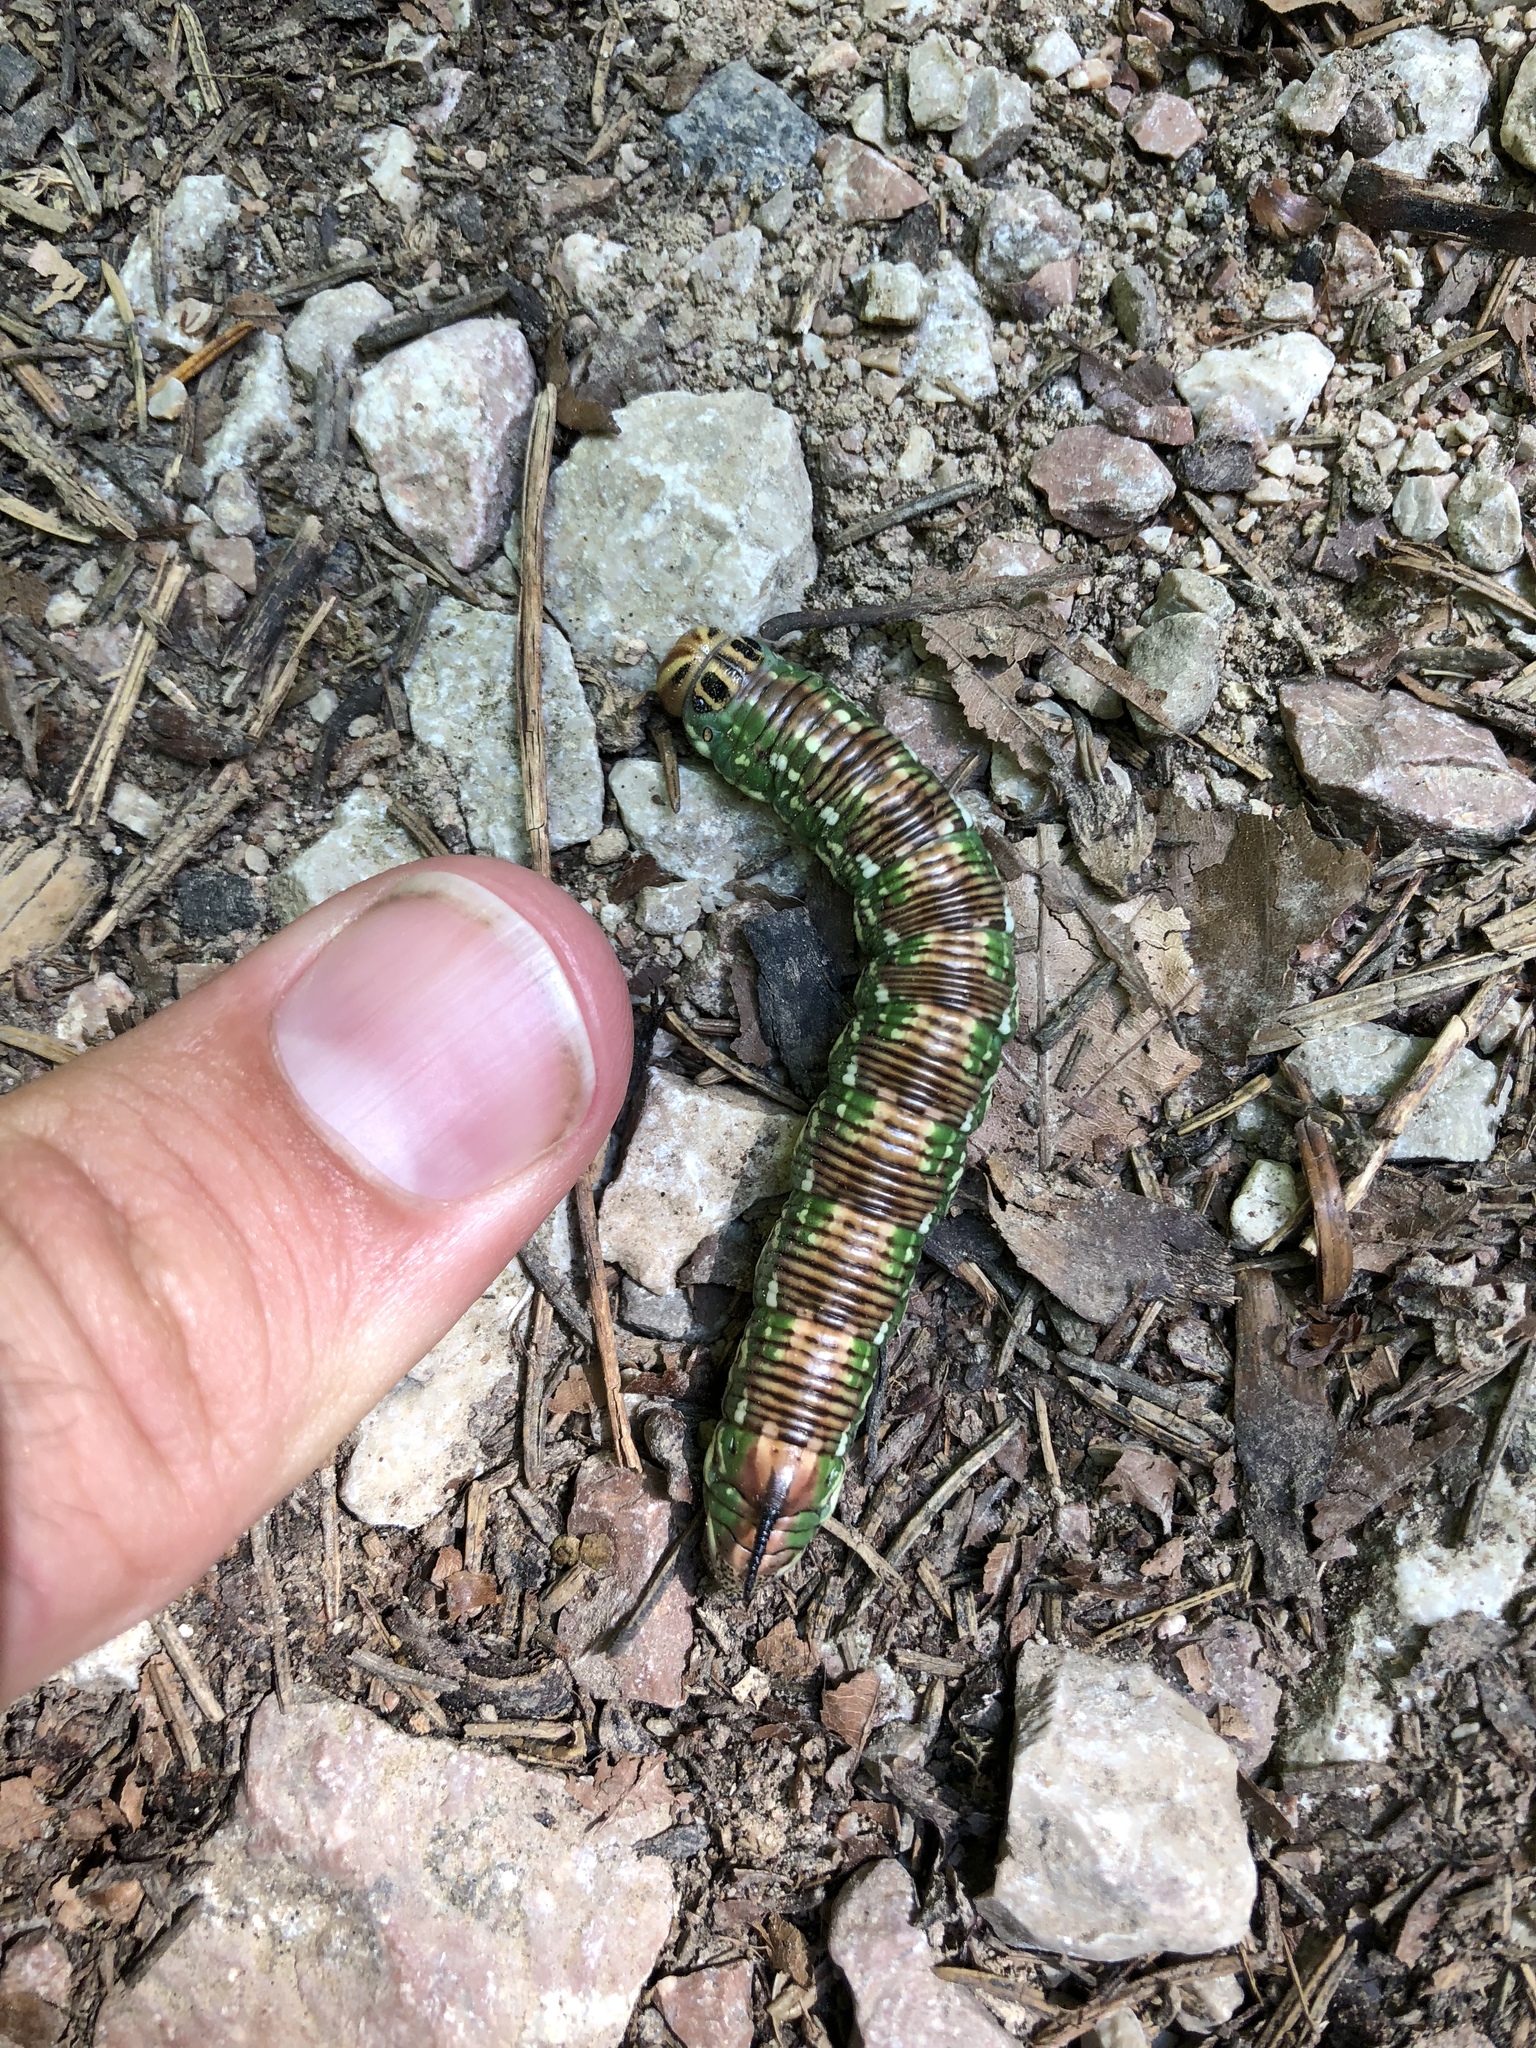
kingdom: Animalia
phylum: Arthropoda
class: Insecta
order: Lepidoptera
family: Sphingidae
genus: Sphinx
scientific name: Sphinx pinastri
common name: Pine hawk-moth
